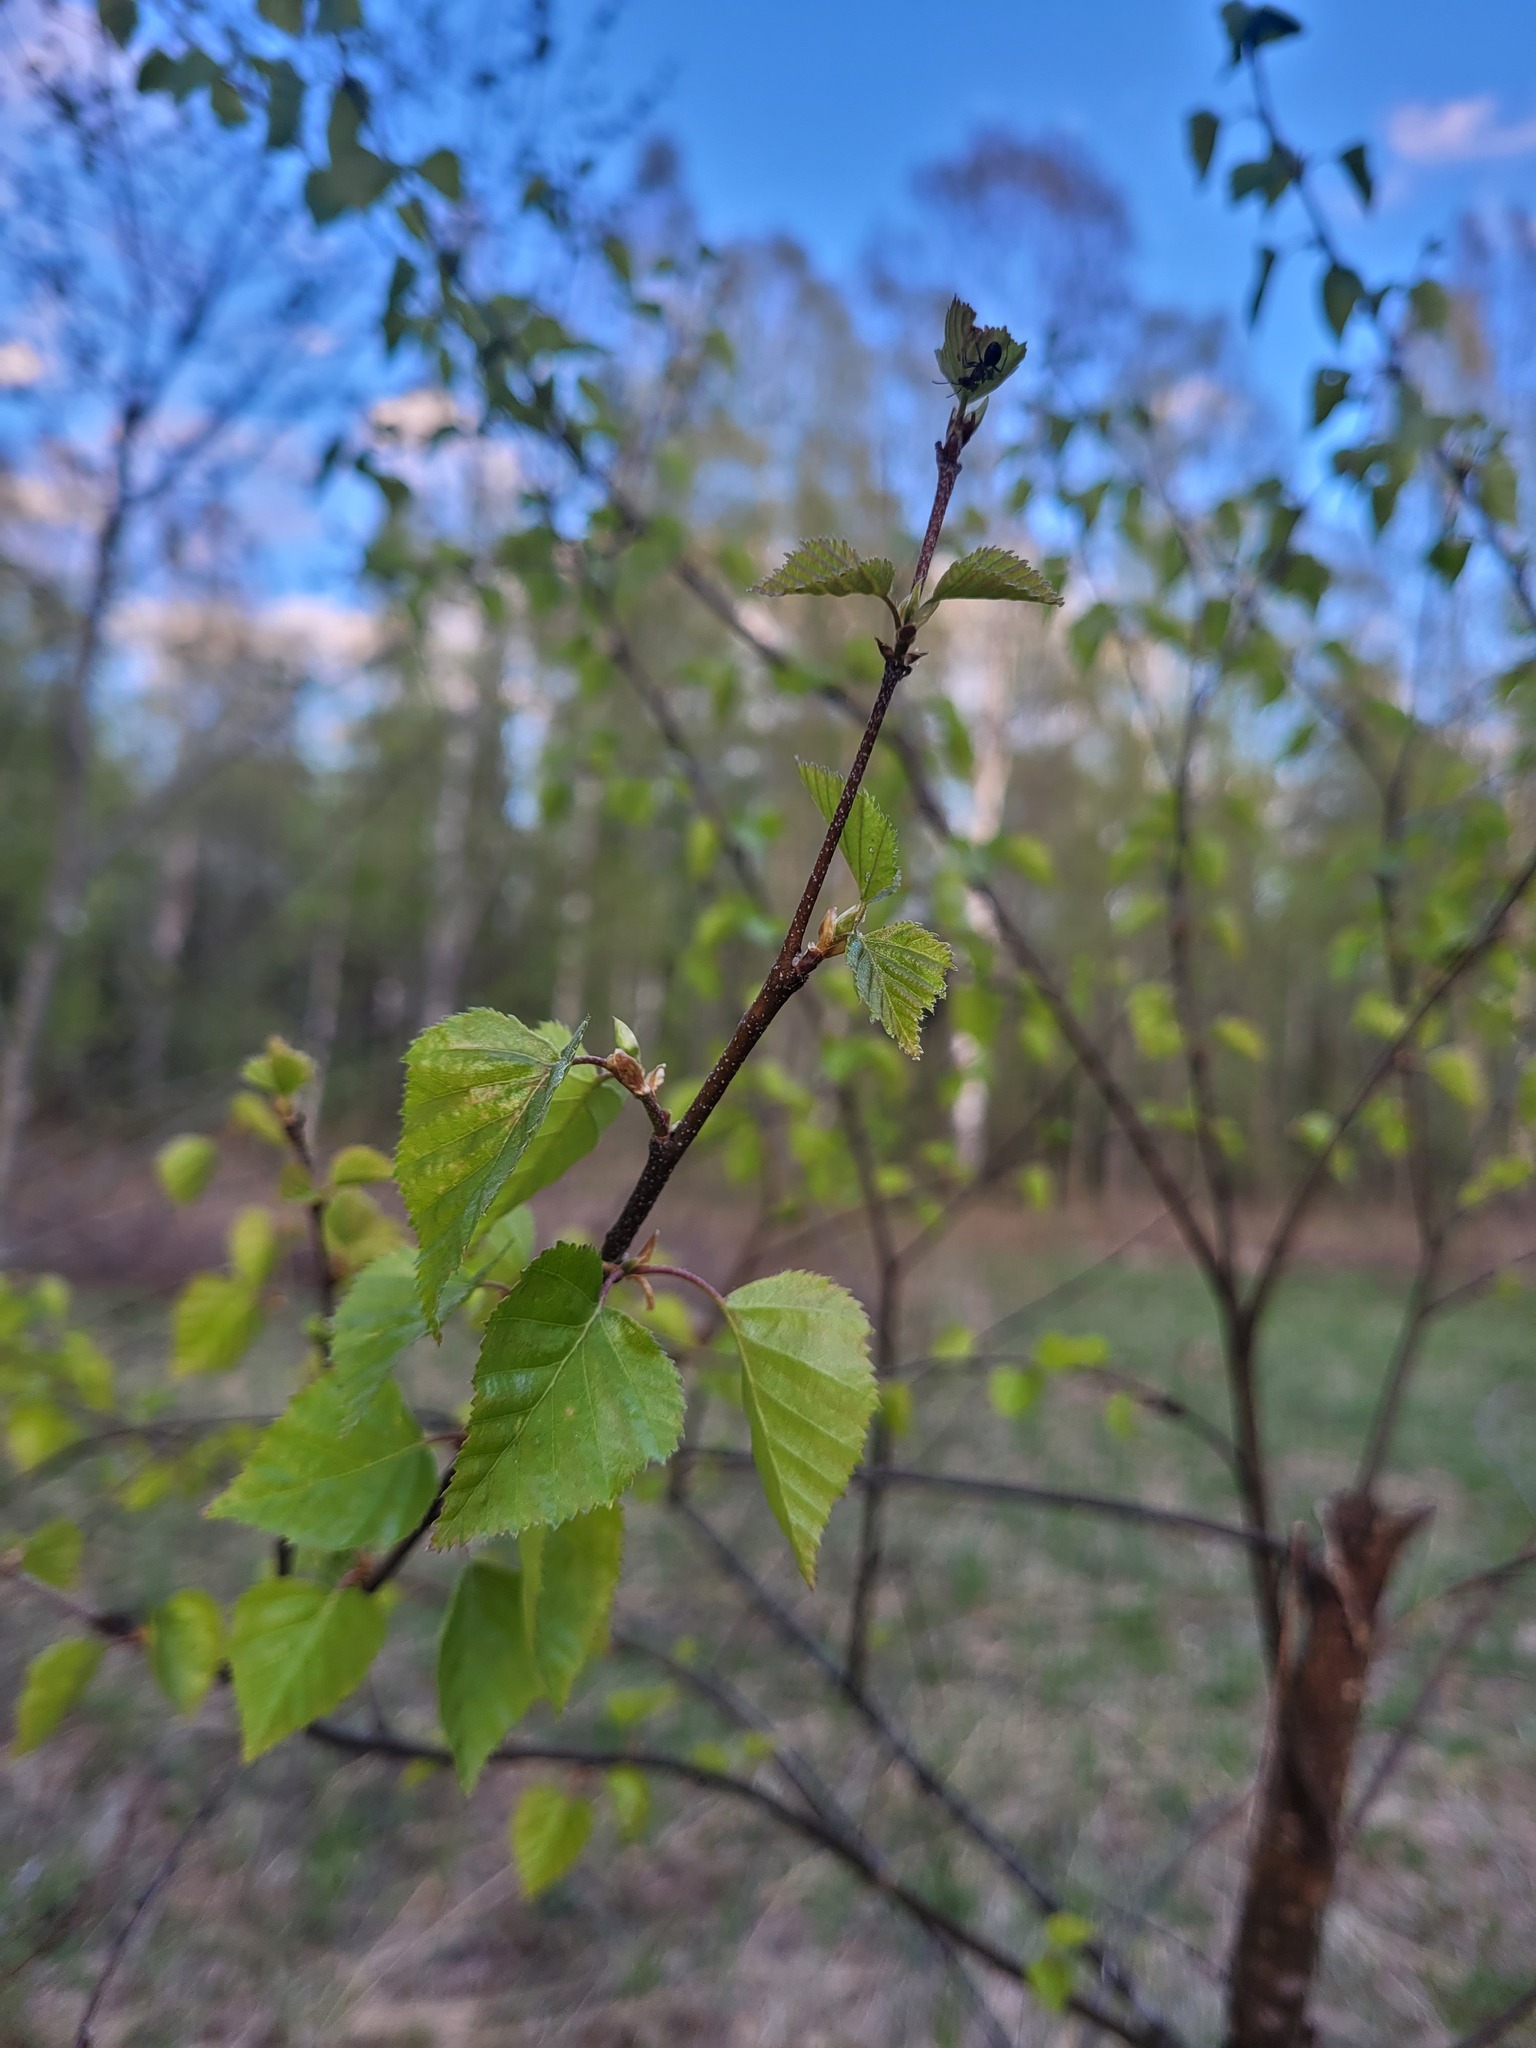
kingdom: Plantae
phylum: Tracheophyta
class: Magnoliopsida
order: Fagales
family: Betulaceae
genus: Betula
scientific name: Betula pendula
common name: Silver birch
